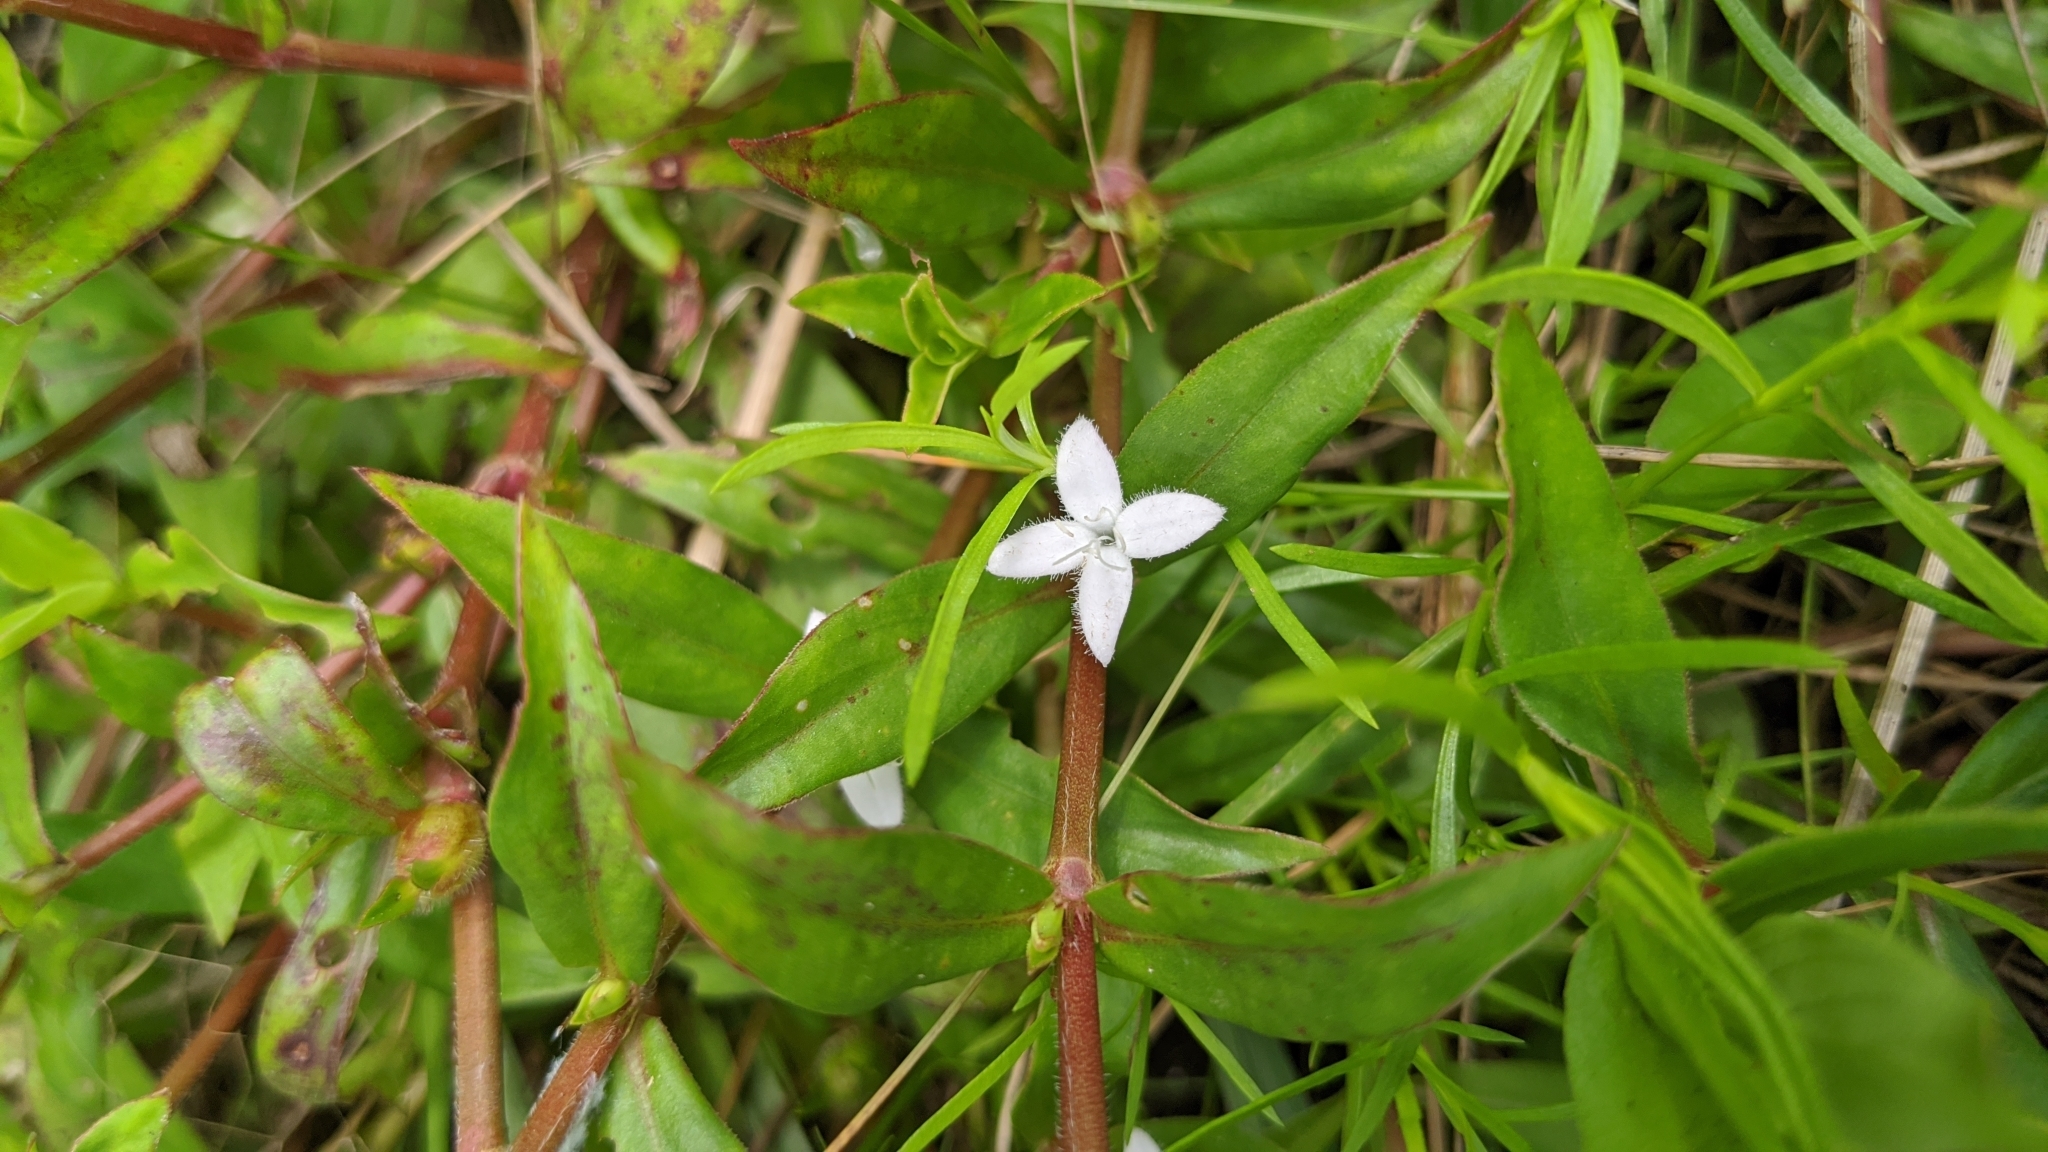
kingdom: Plantae
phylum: Tracheophyta
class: Magnoliopsida
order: Gentianales
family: Rubiaceae
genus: Diodia
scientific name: Diodia virginiana
